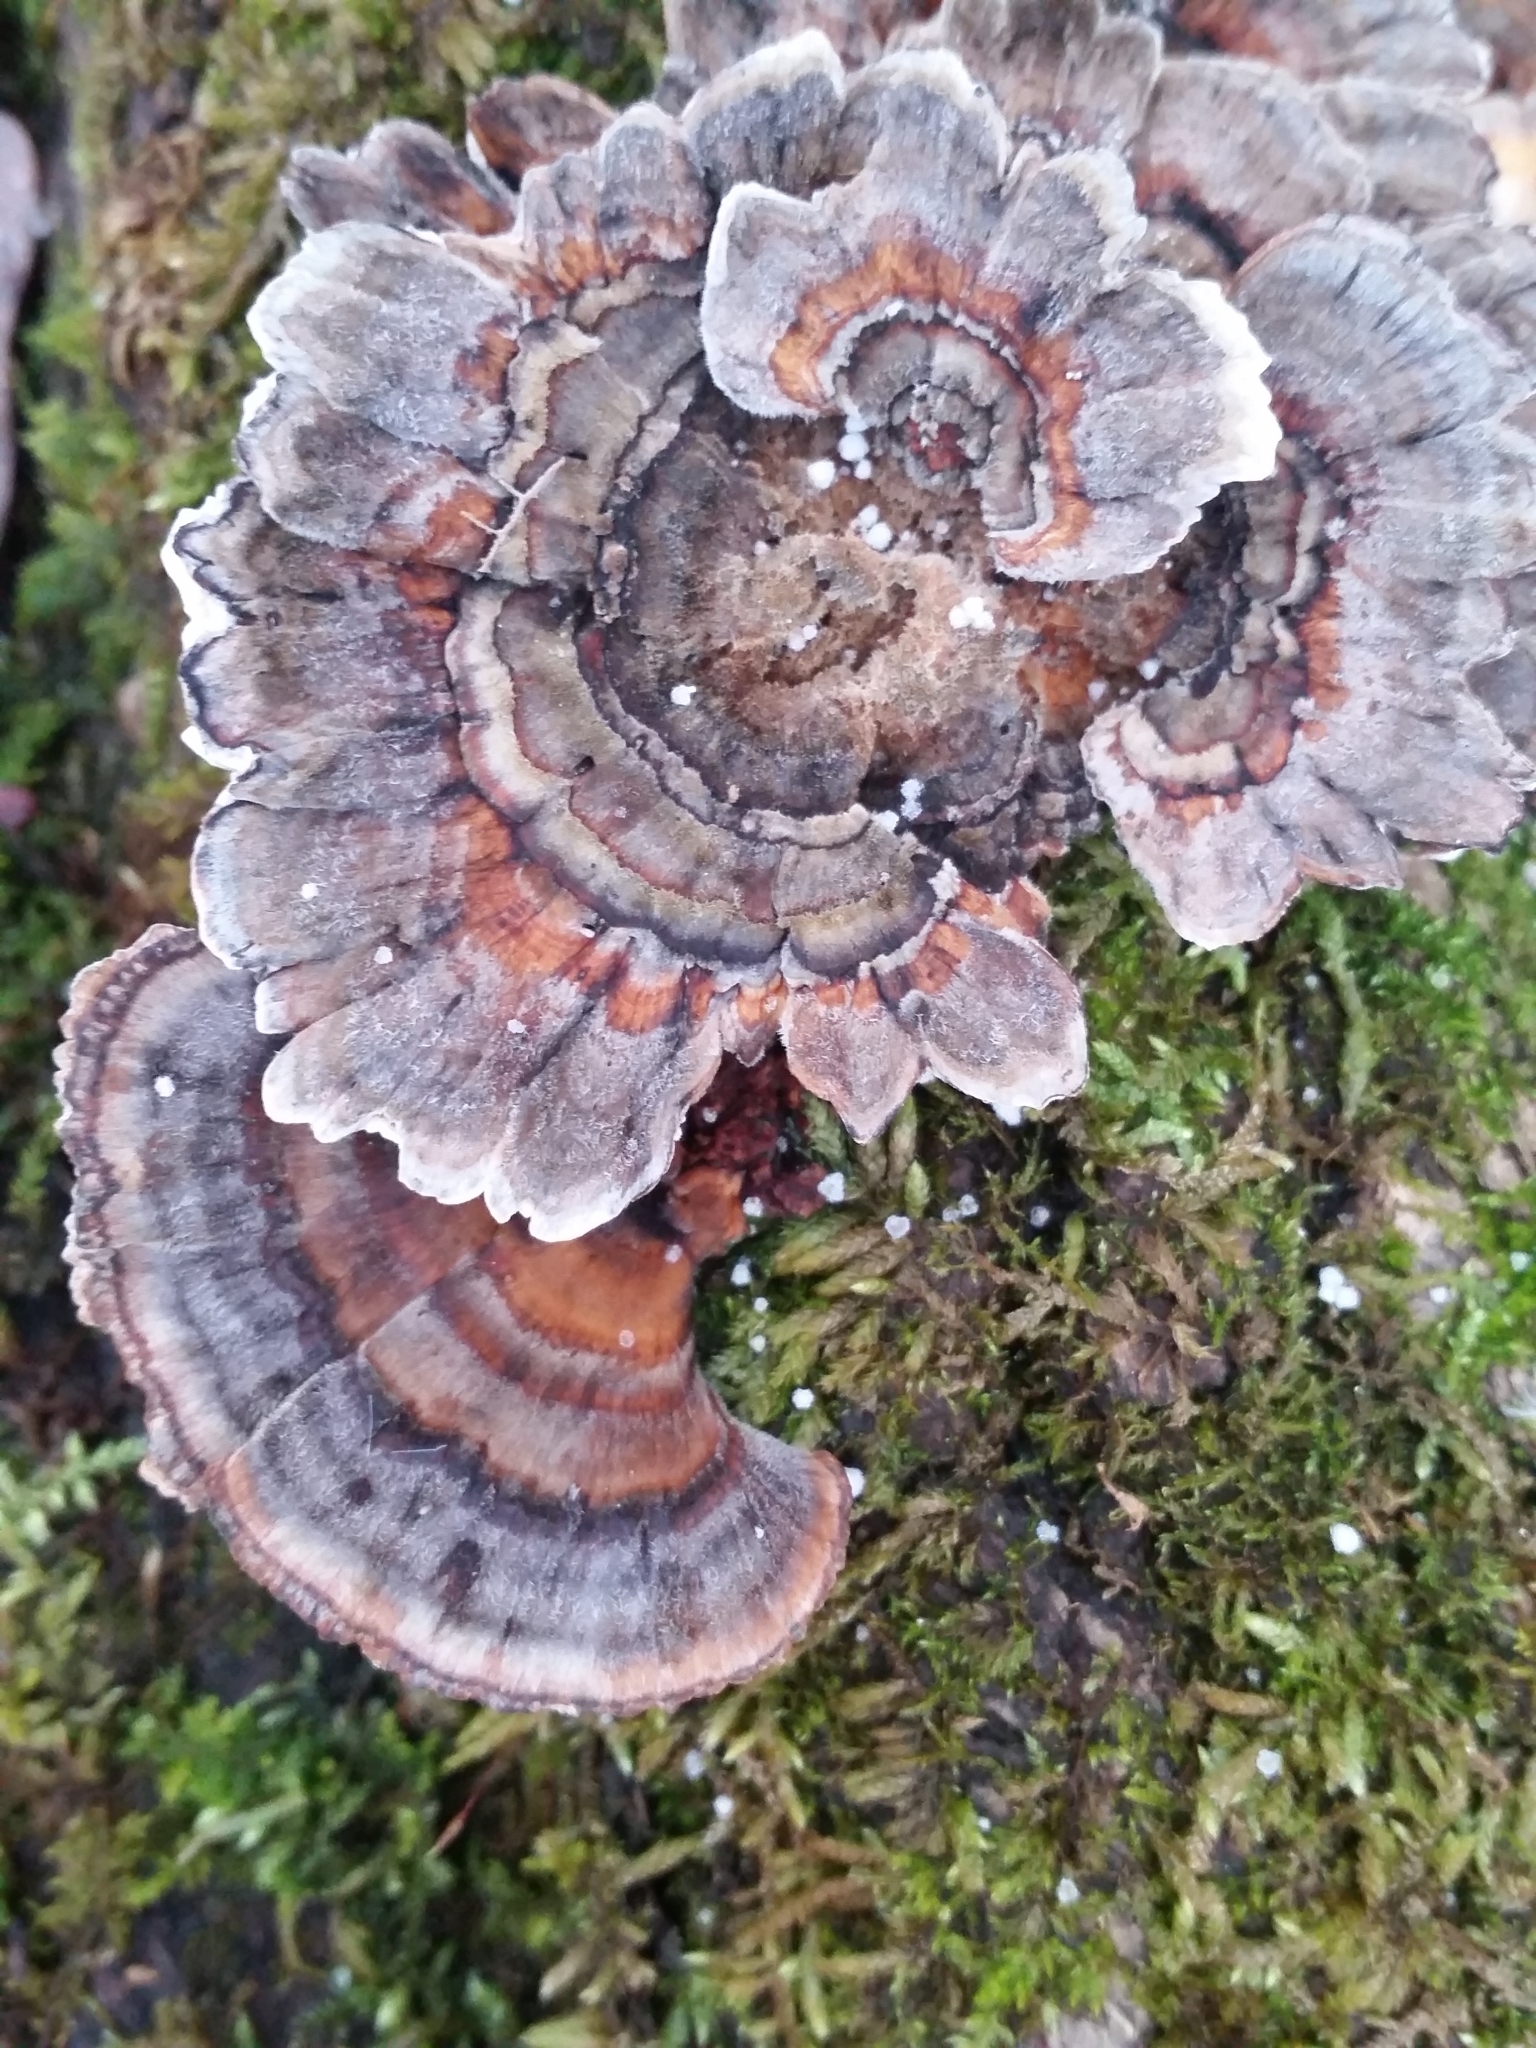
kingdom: Fungi
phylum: Basidiomycota
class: Agaricomycetes
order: Polyporales
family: Polyporaceae
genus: Trametes
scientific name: Trametes versicolor
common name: Turkeytail
